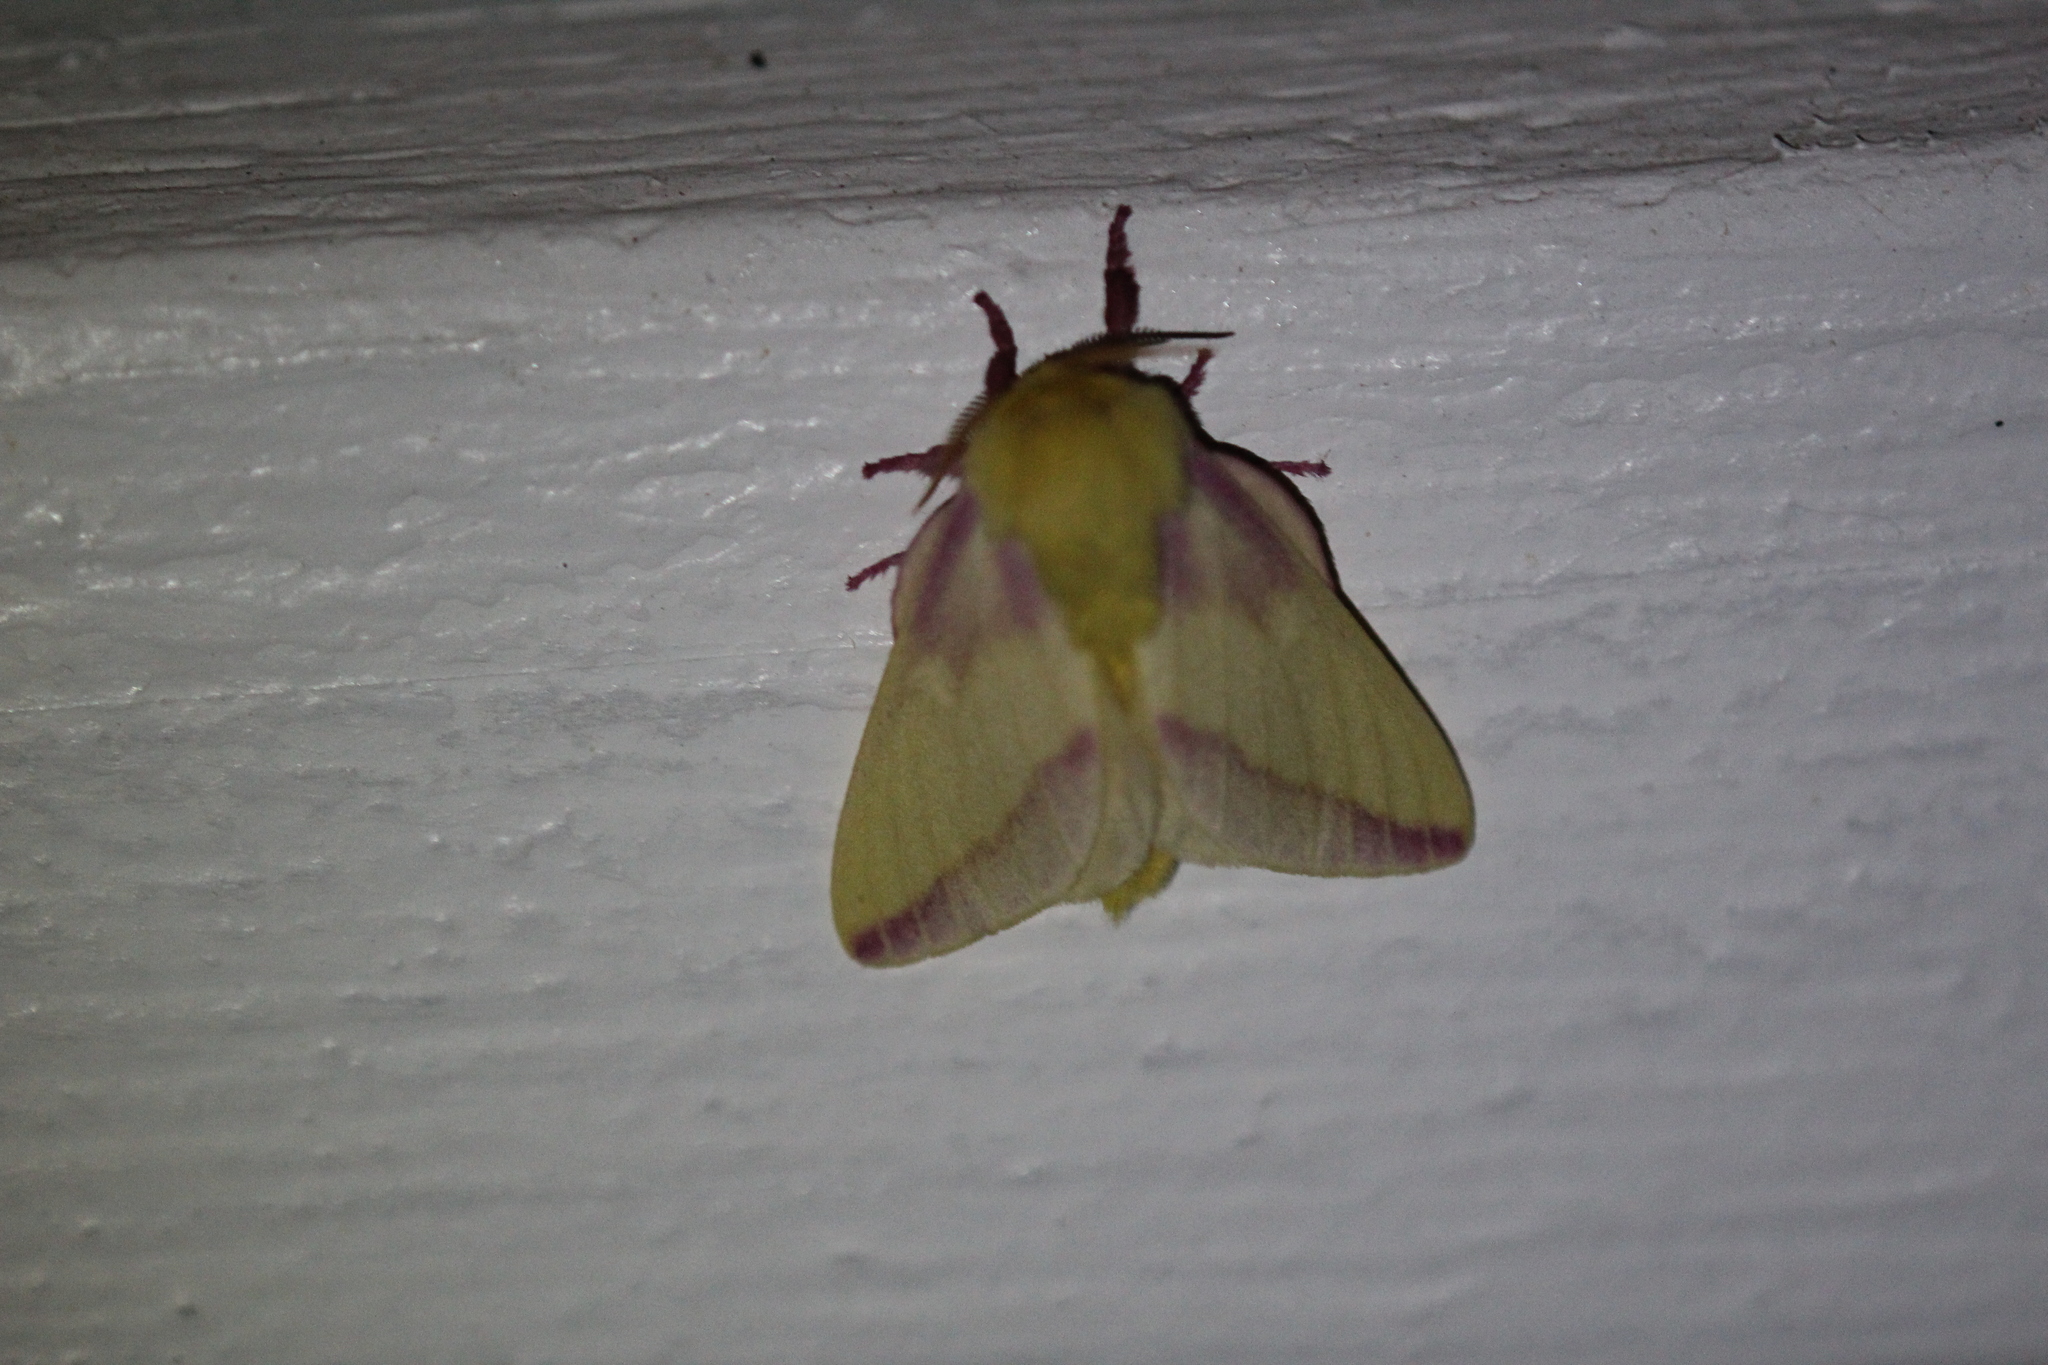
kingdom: Animalia
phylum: Arthropoda
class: Insecta
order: Lepidoptera
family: Saturniidae
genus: Dryocampa
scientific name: Dryocampa rubicunda
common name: Rosy maple moth
